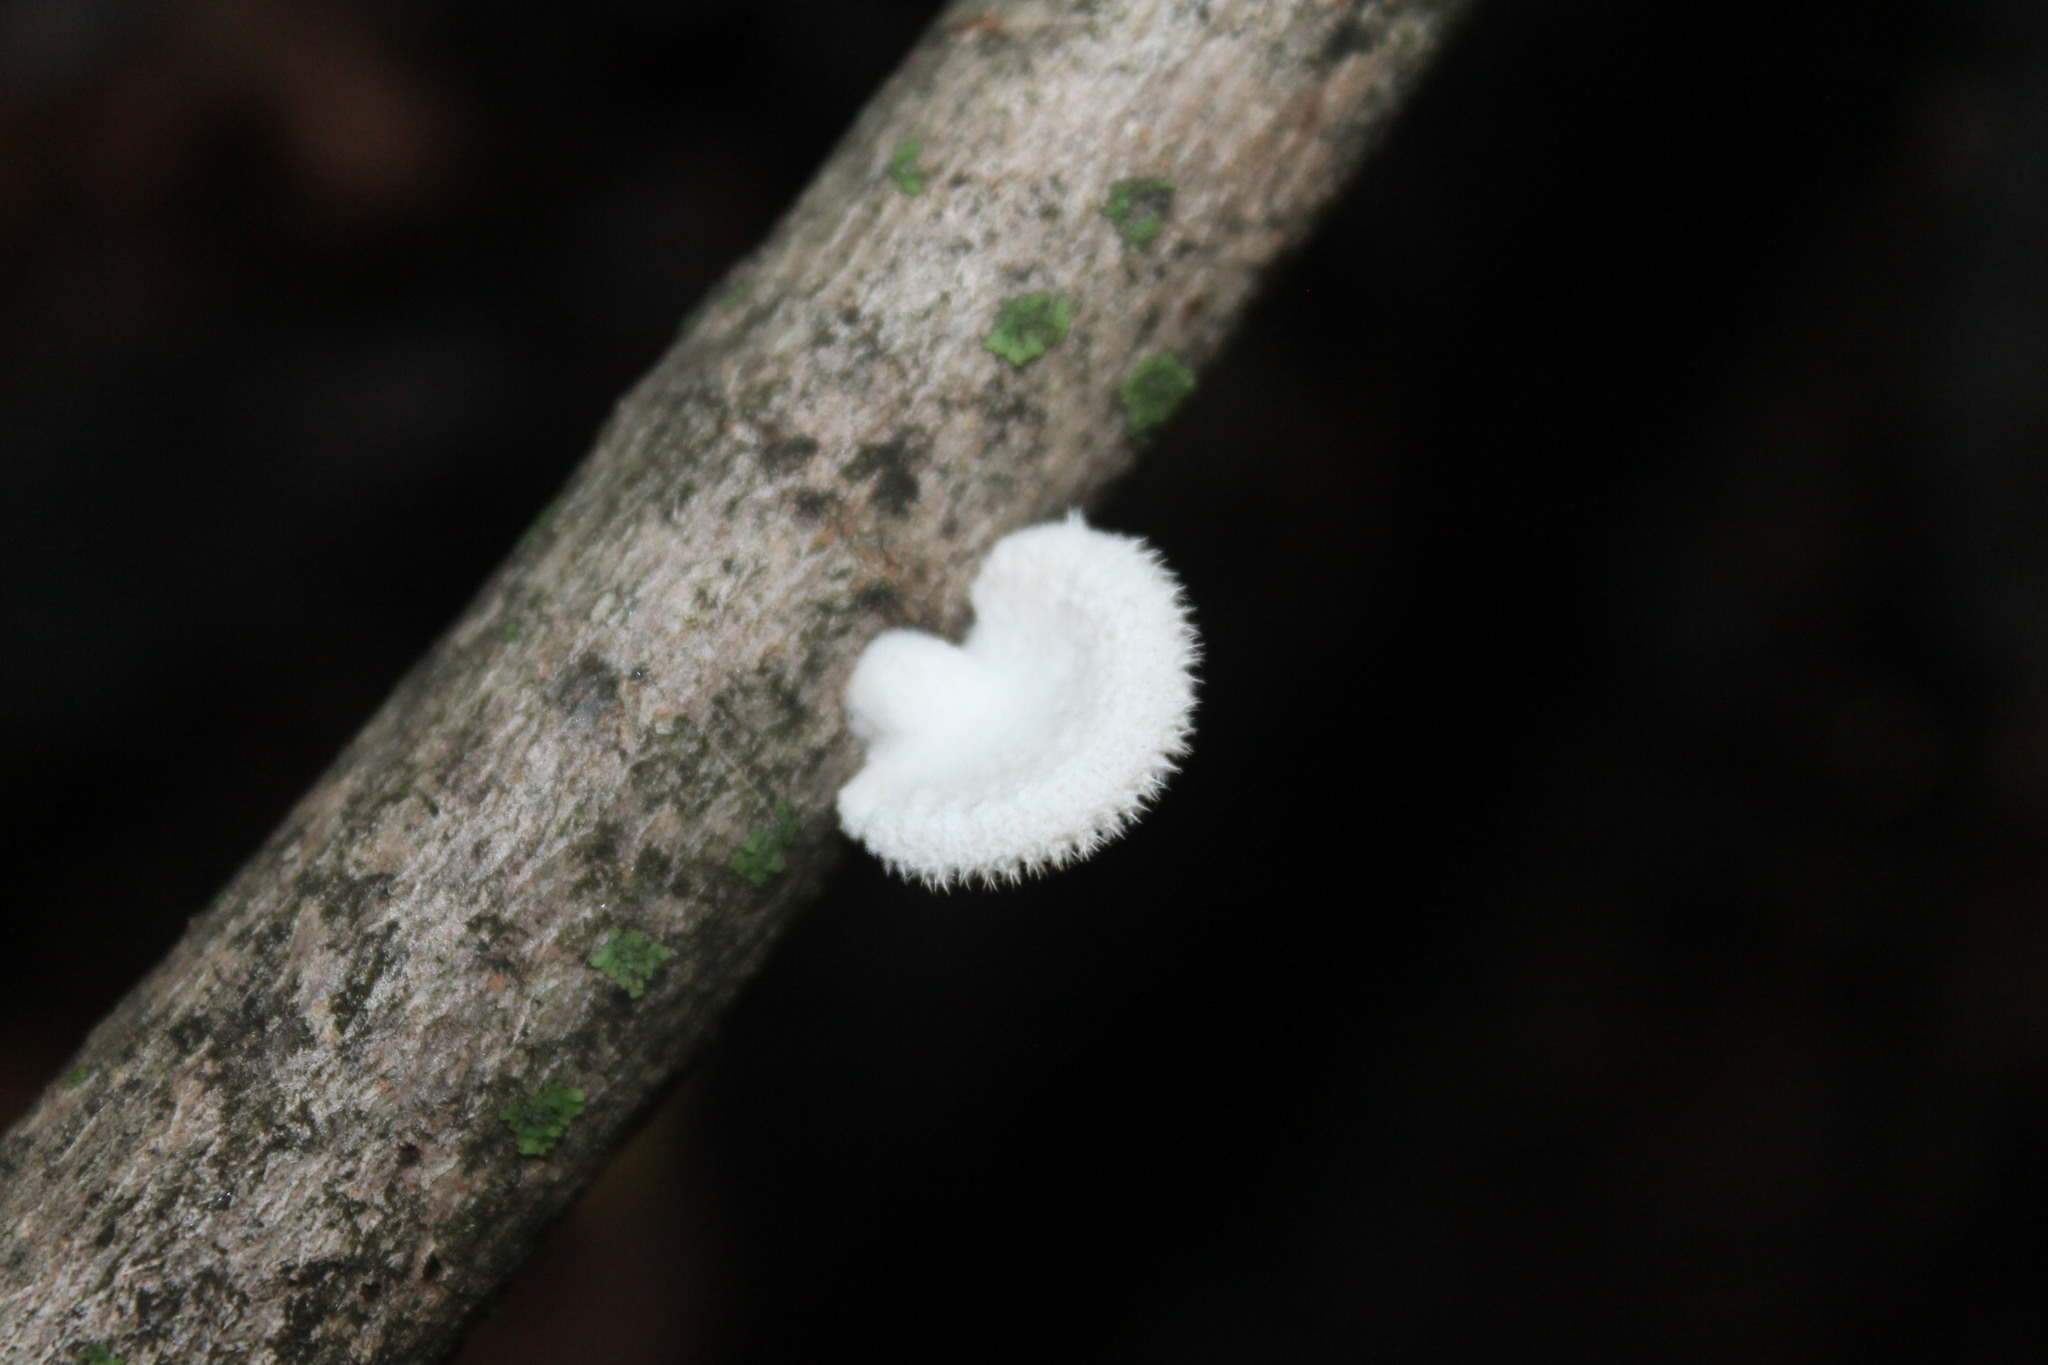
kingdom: Fungi
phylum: Basidiomycota
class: Agaricomycetes
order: Agaricales
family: Schizophyllaceae
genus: Schizophyllum
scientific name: Schizophyllum commune
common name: Common porecrust
